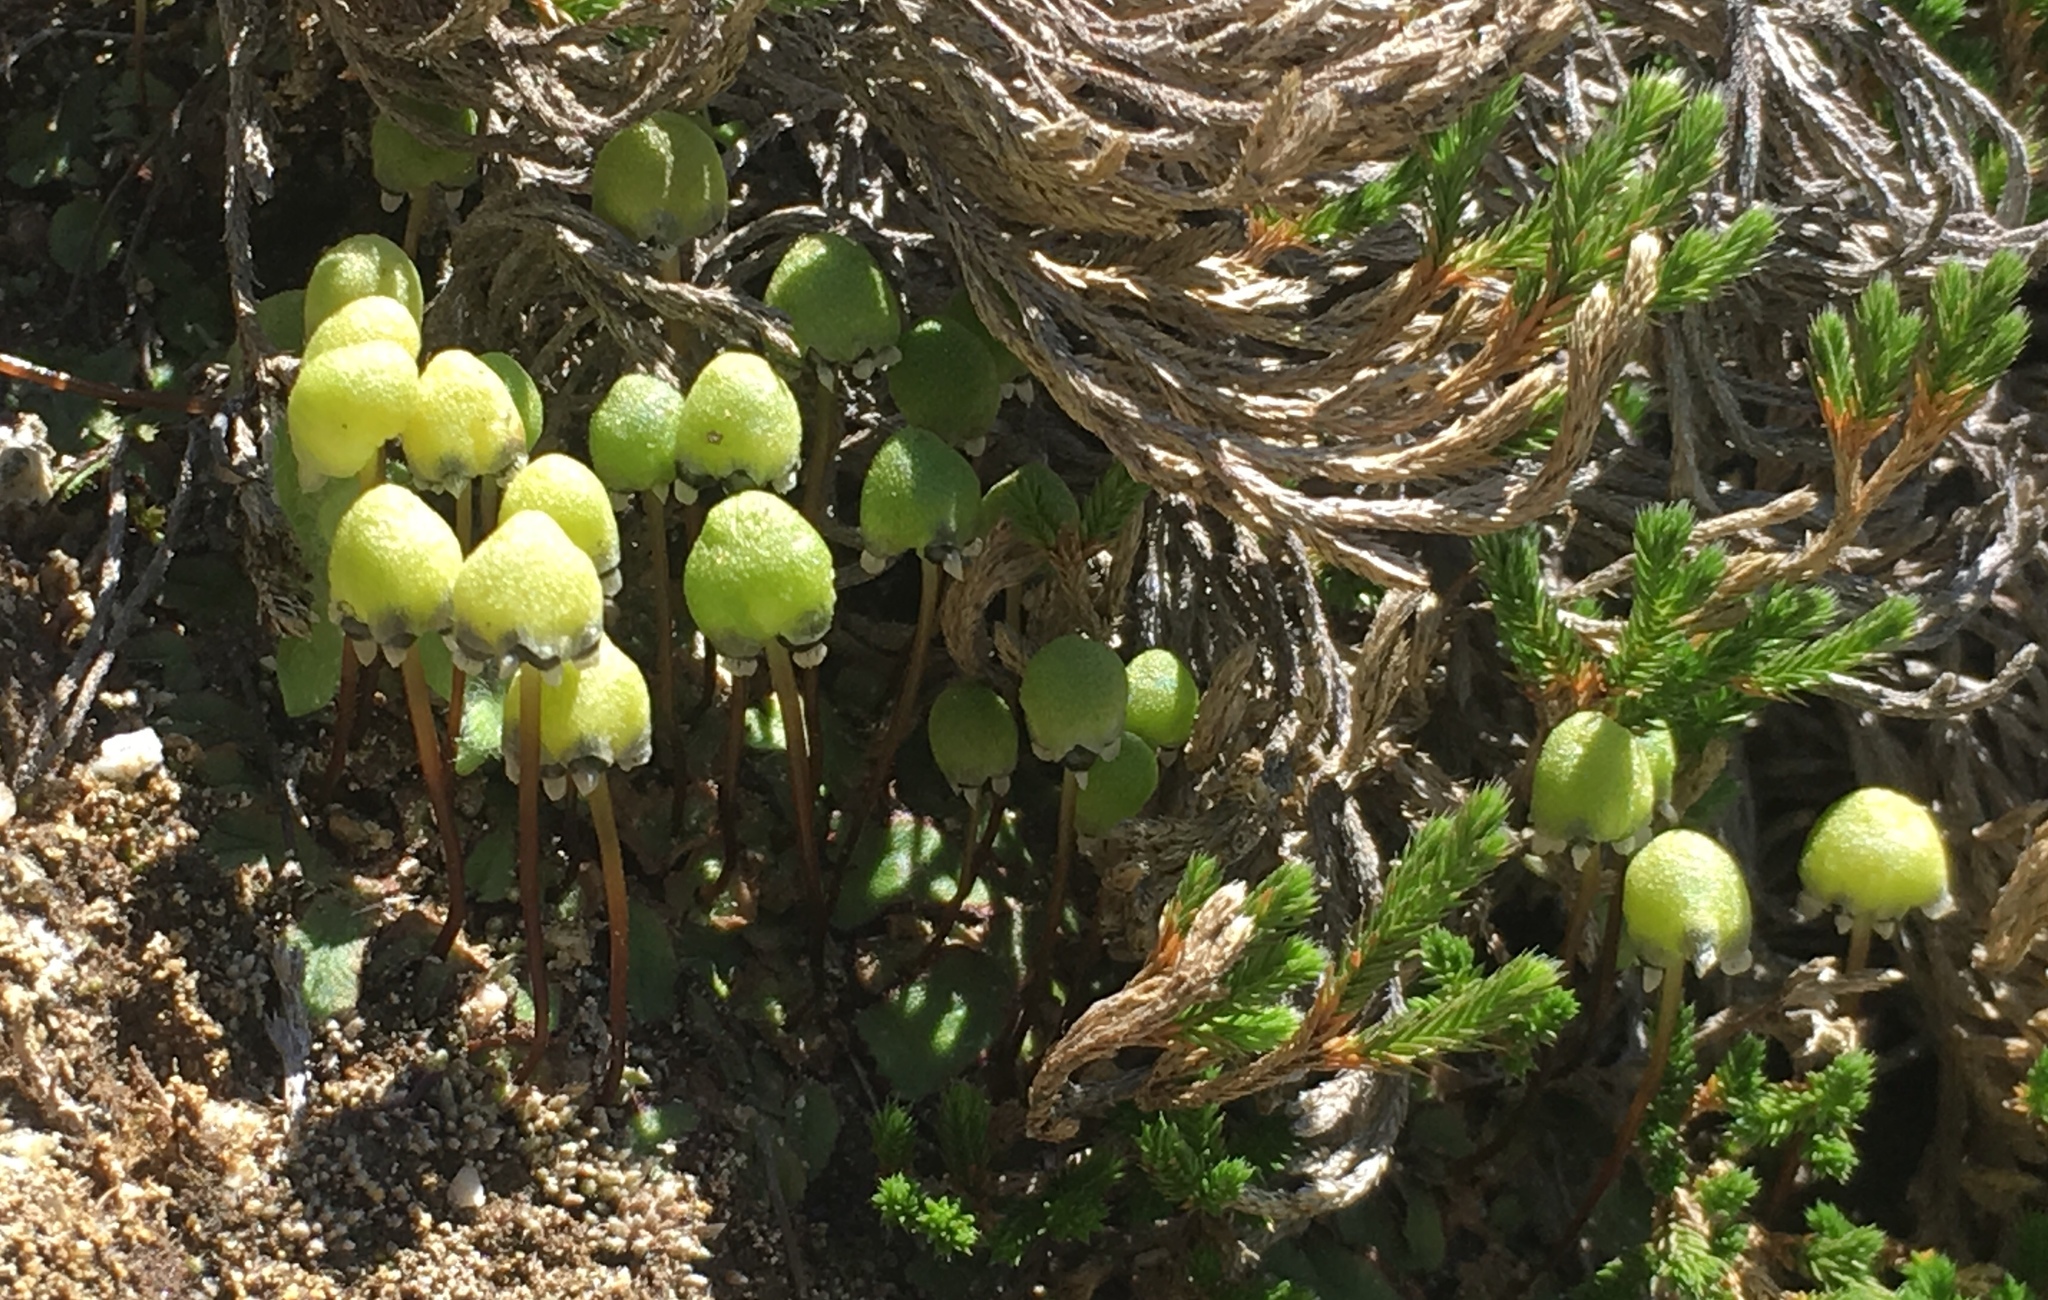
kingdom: Plantae
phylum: Marchantiophyta
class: Marchantiopsida
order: Marchantiales
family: Aytoniaceae
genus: Asterella
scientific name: Asterella palmeri
